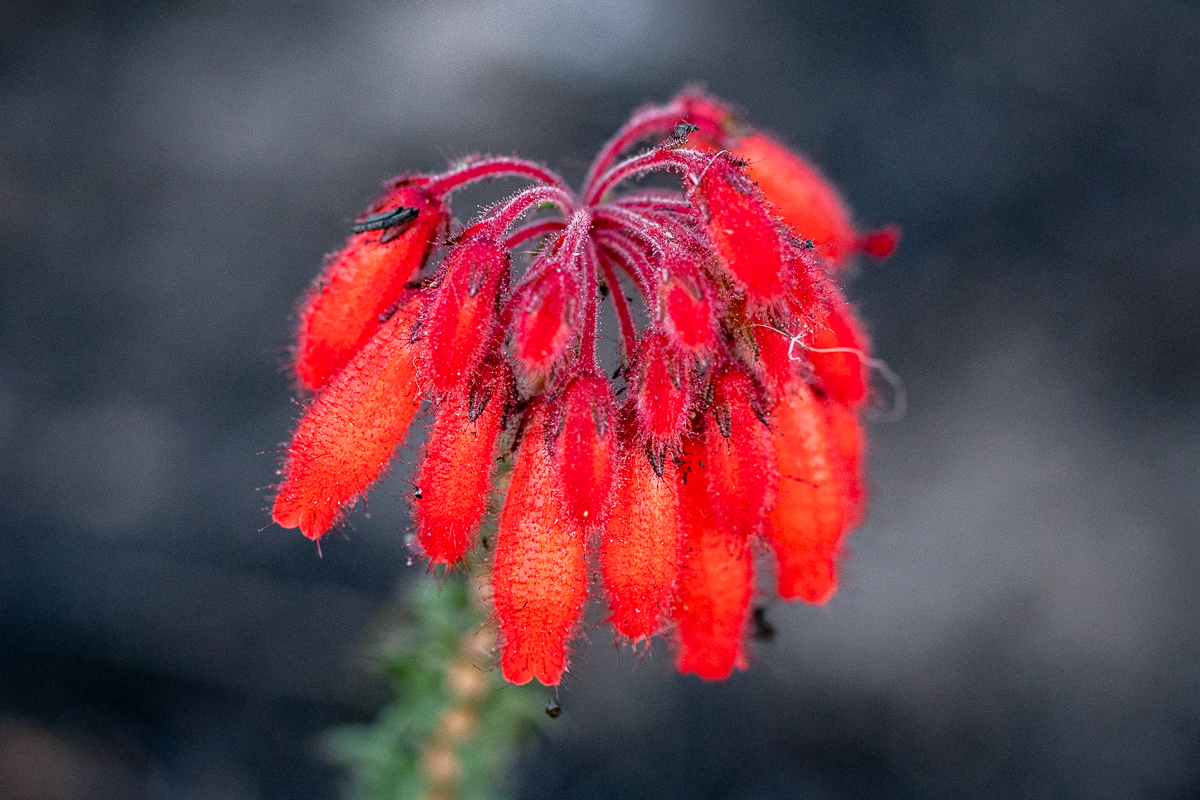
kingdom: Plantae
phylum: Tracheophyta
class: Magnoliopsida
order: Ericales
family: Ericaceae
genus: Erica
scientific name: Erica cerinthoides
